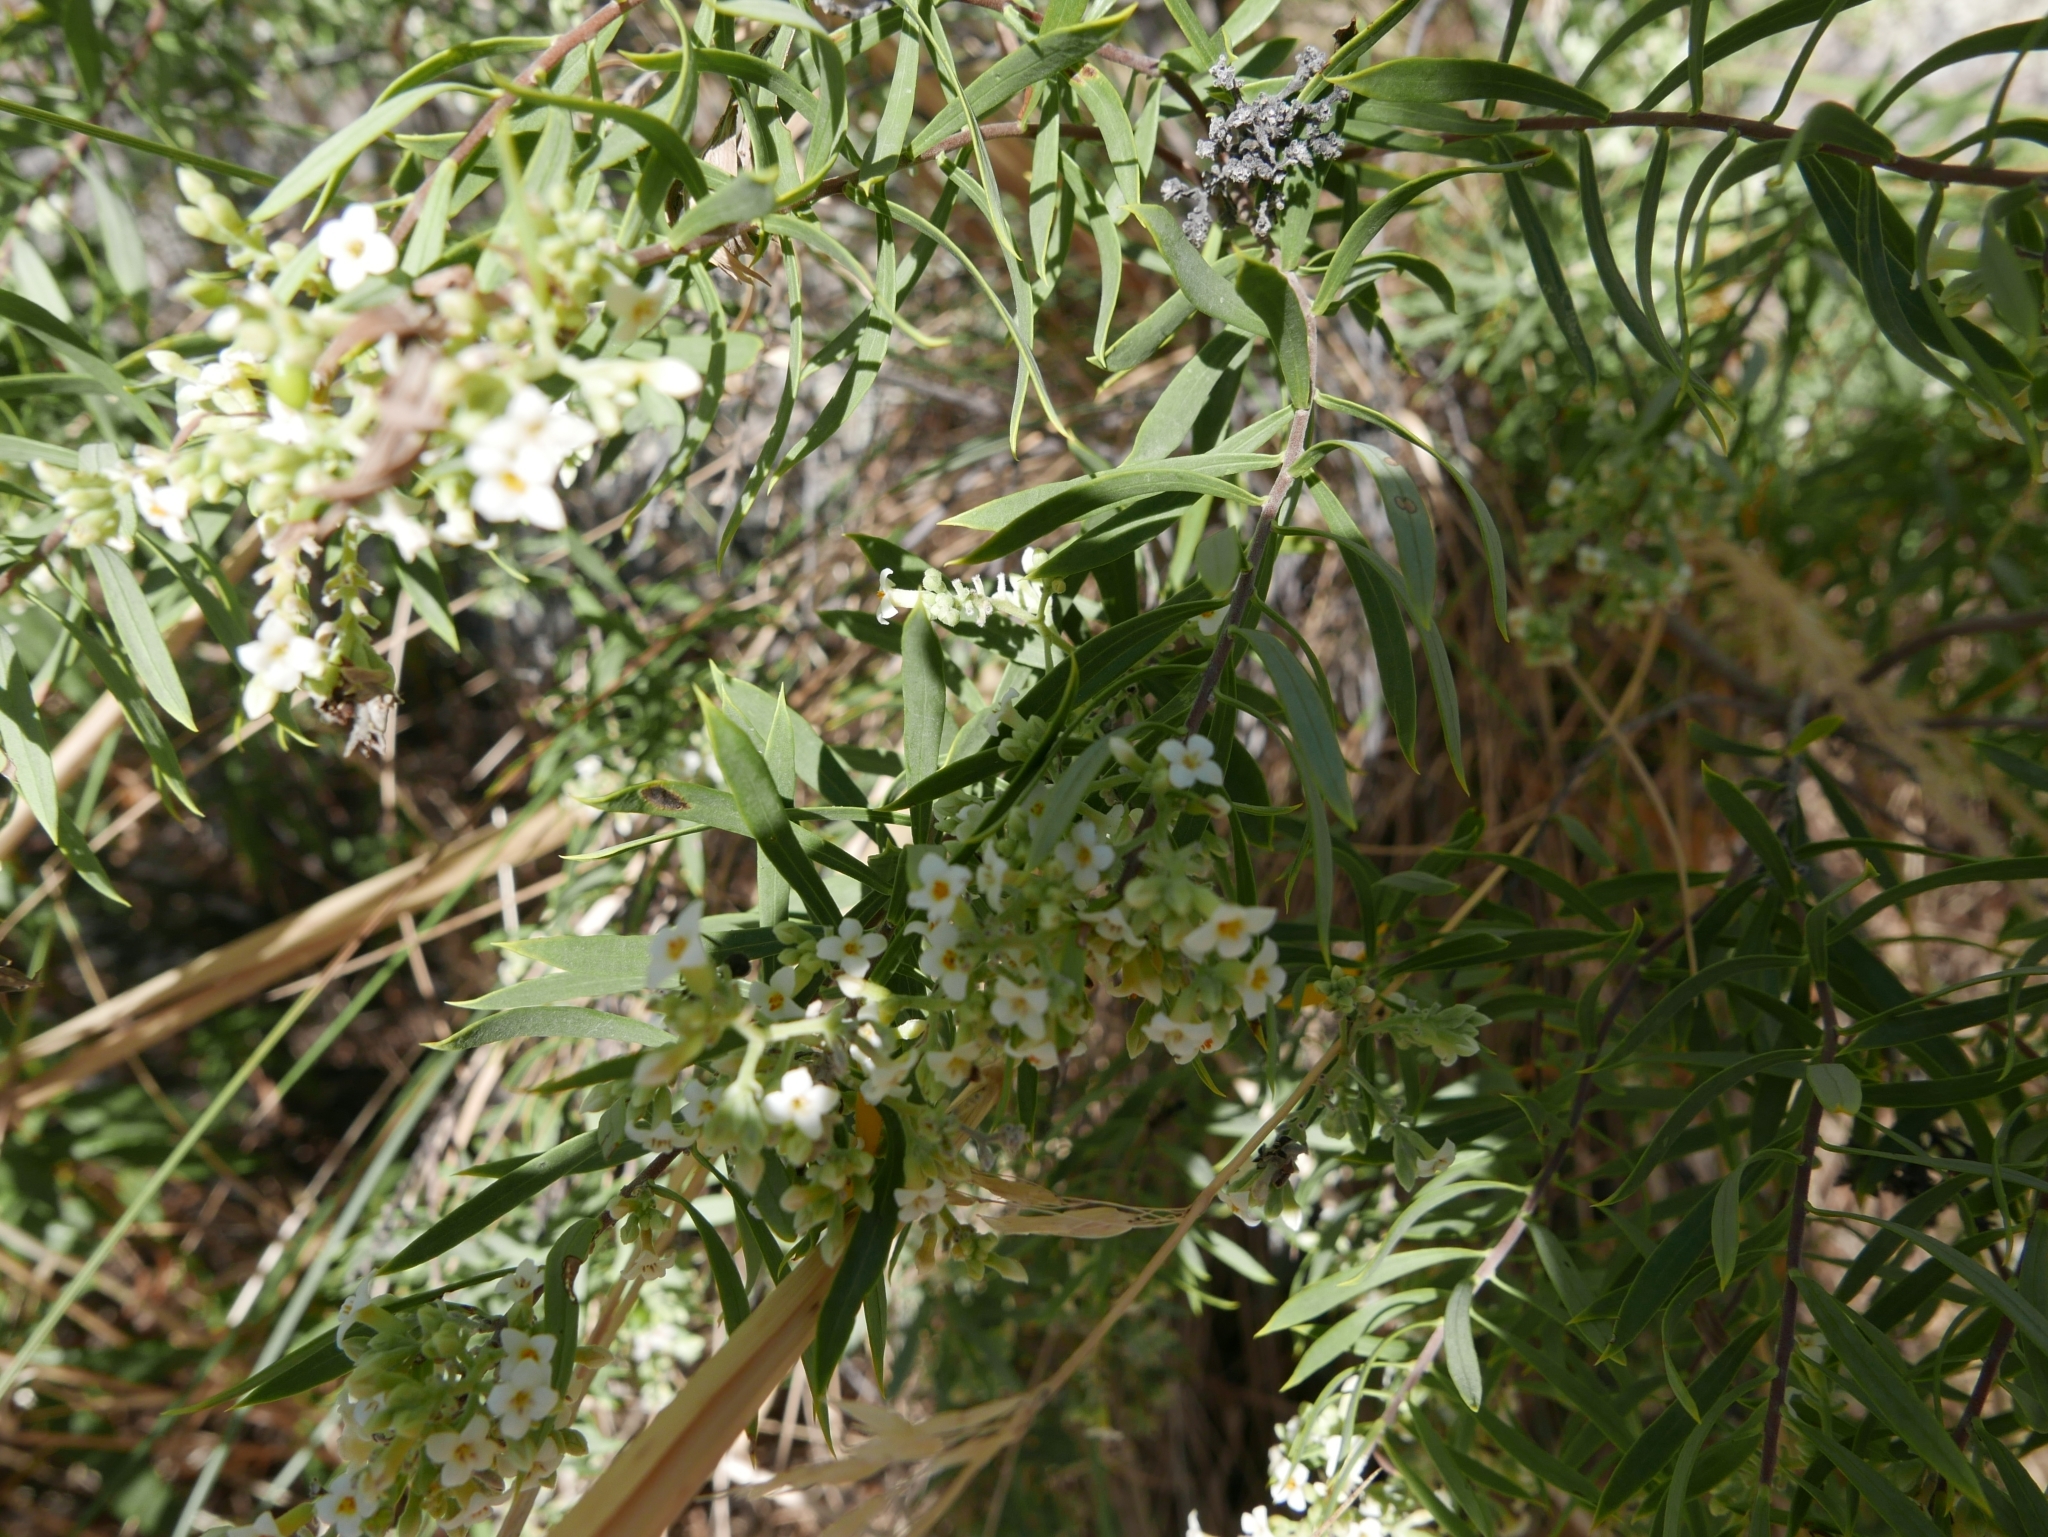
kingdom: Plantae
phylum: Tracheophyta
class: Magnoliopsida
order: Malvales
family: Thymelaeaceae
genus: Daphne
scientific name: Daphne gnidium
